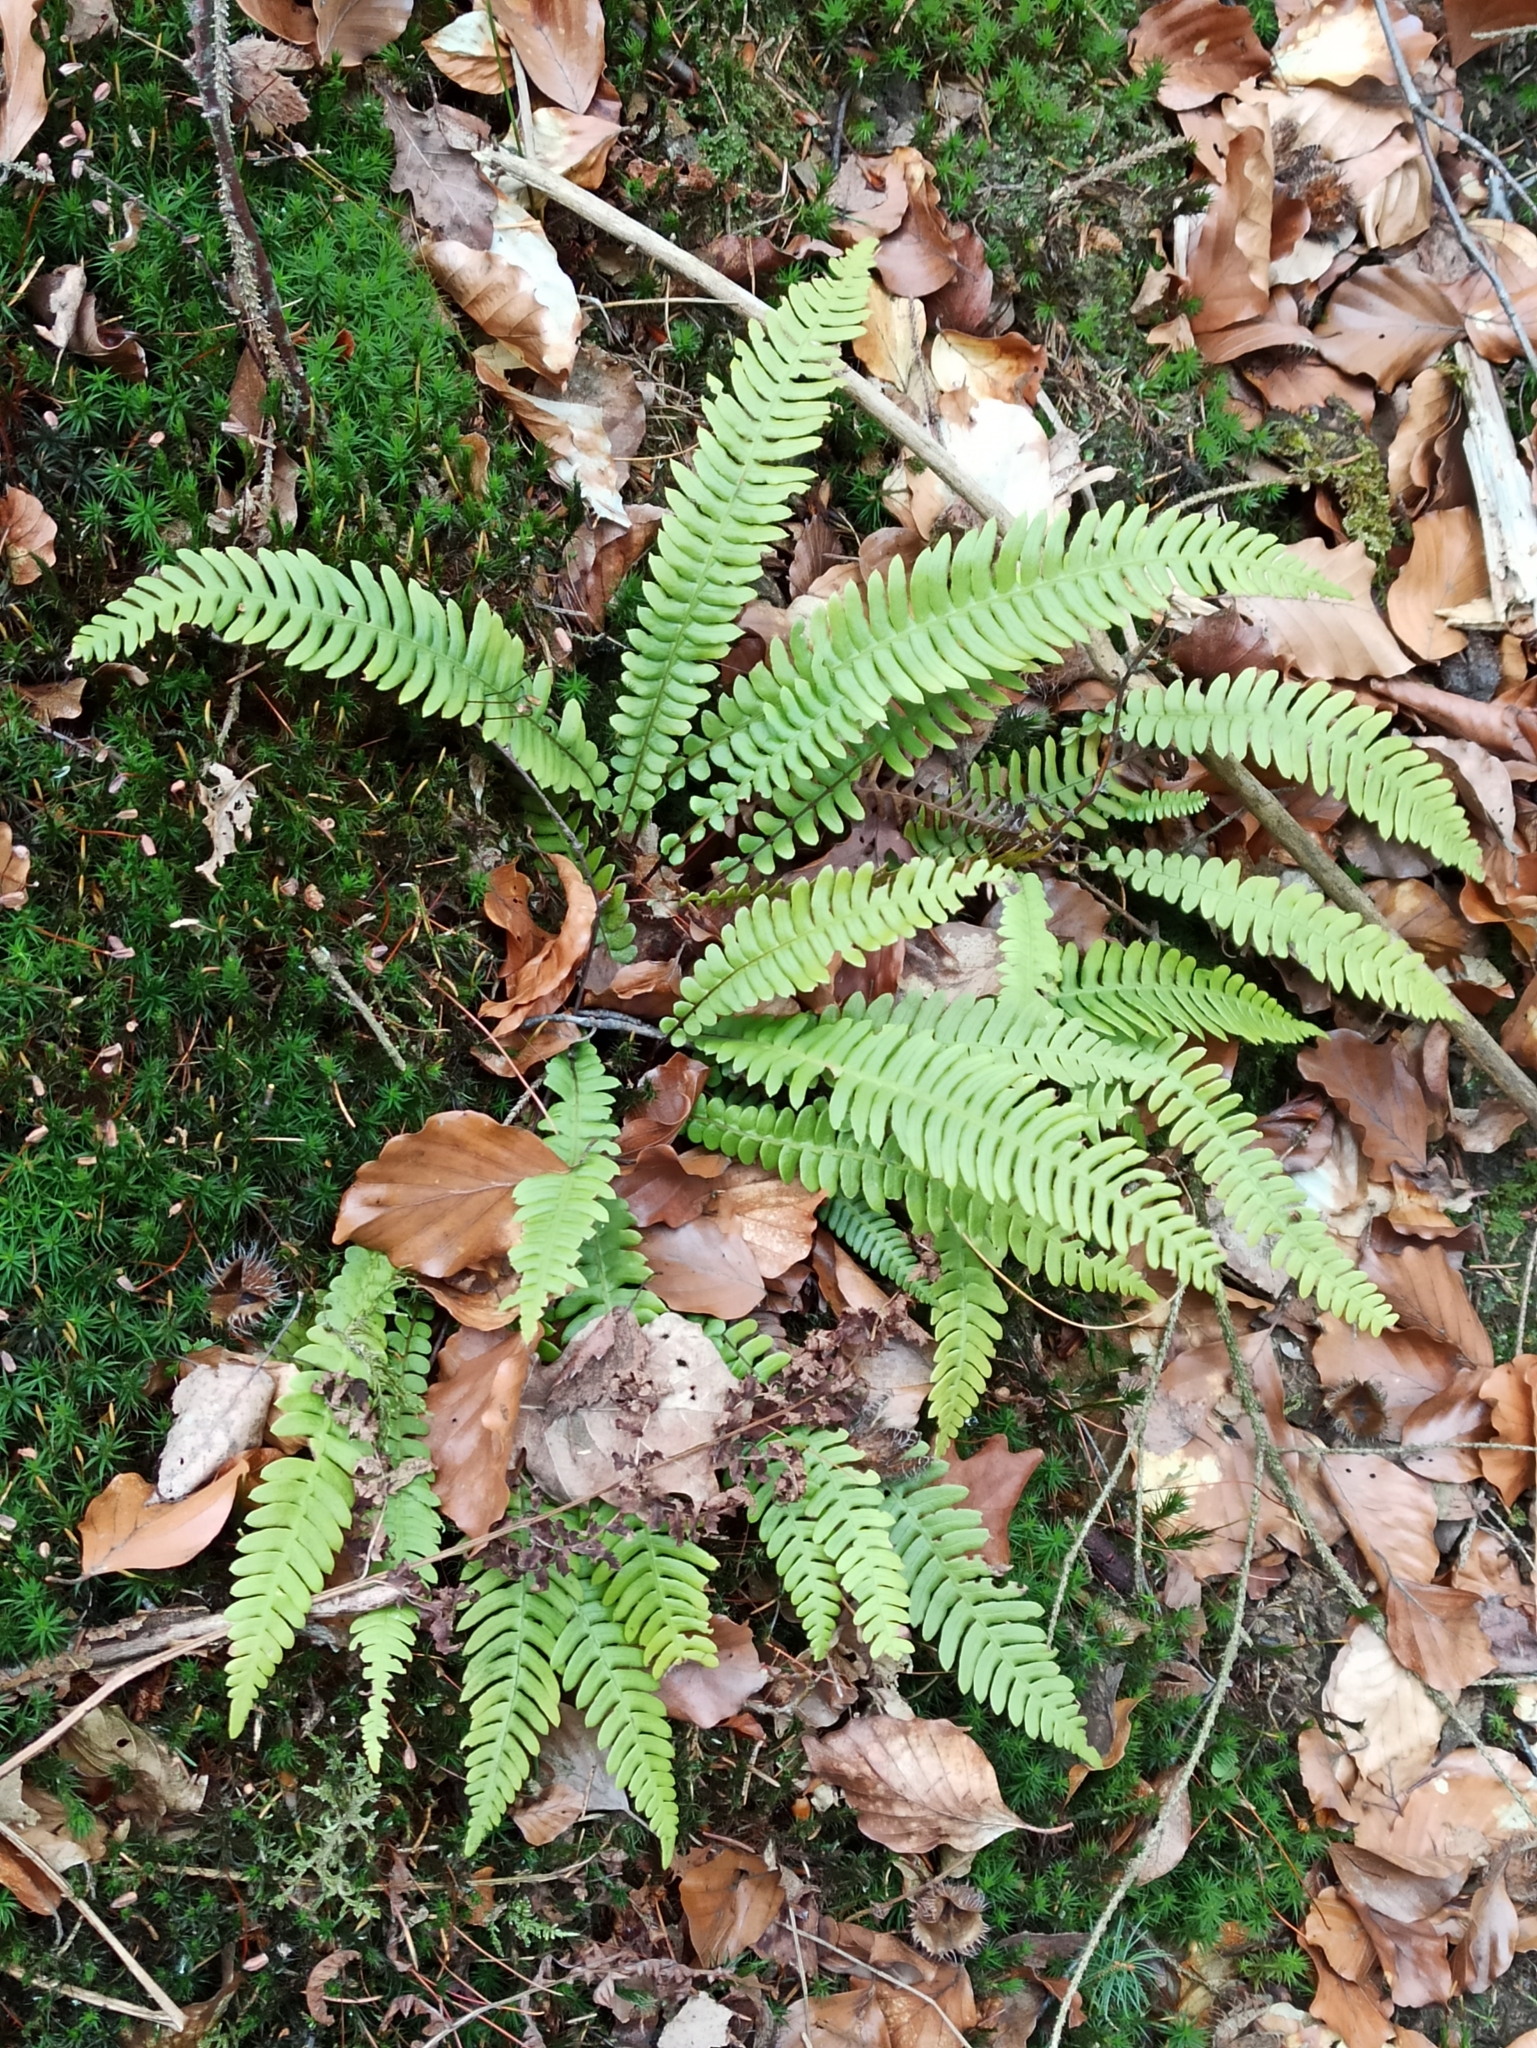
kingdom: Plantae
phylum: Tracheophyta
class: Polypodiopsida
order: Polypodiales
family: Blechnaceae
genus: Struthiopteris
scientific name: Struthiopteris spicant
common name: Deer fern
